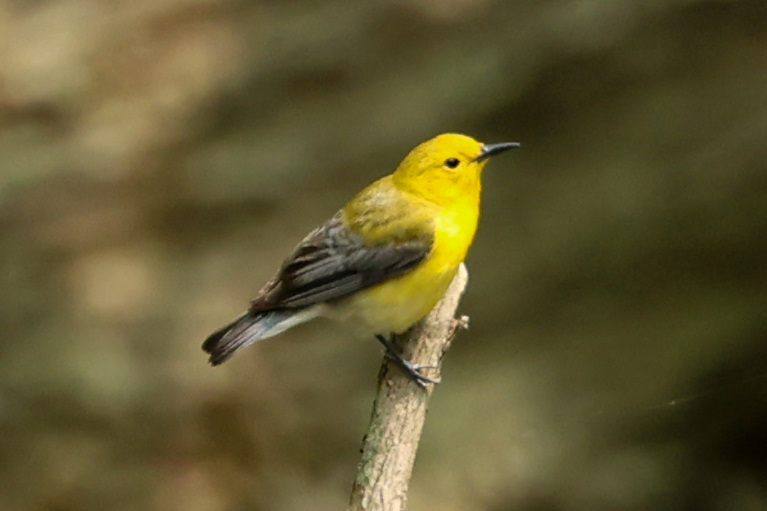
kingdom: Animalia
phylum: Chordata
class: Aves
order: Passeriformes
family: Parulidae
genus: Protonotaria
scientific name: Protonotaria citrea
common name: Prothonotary warbler
